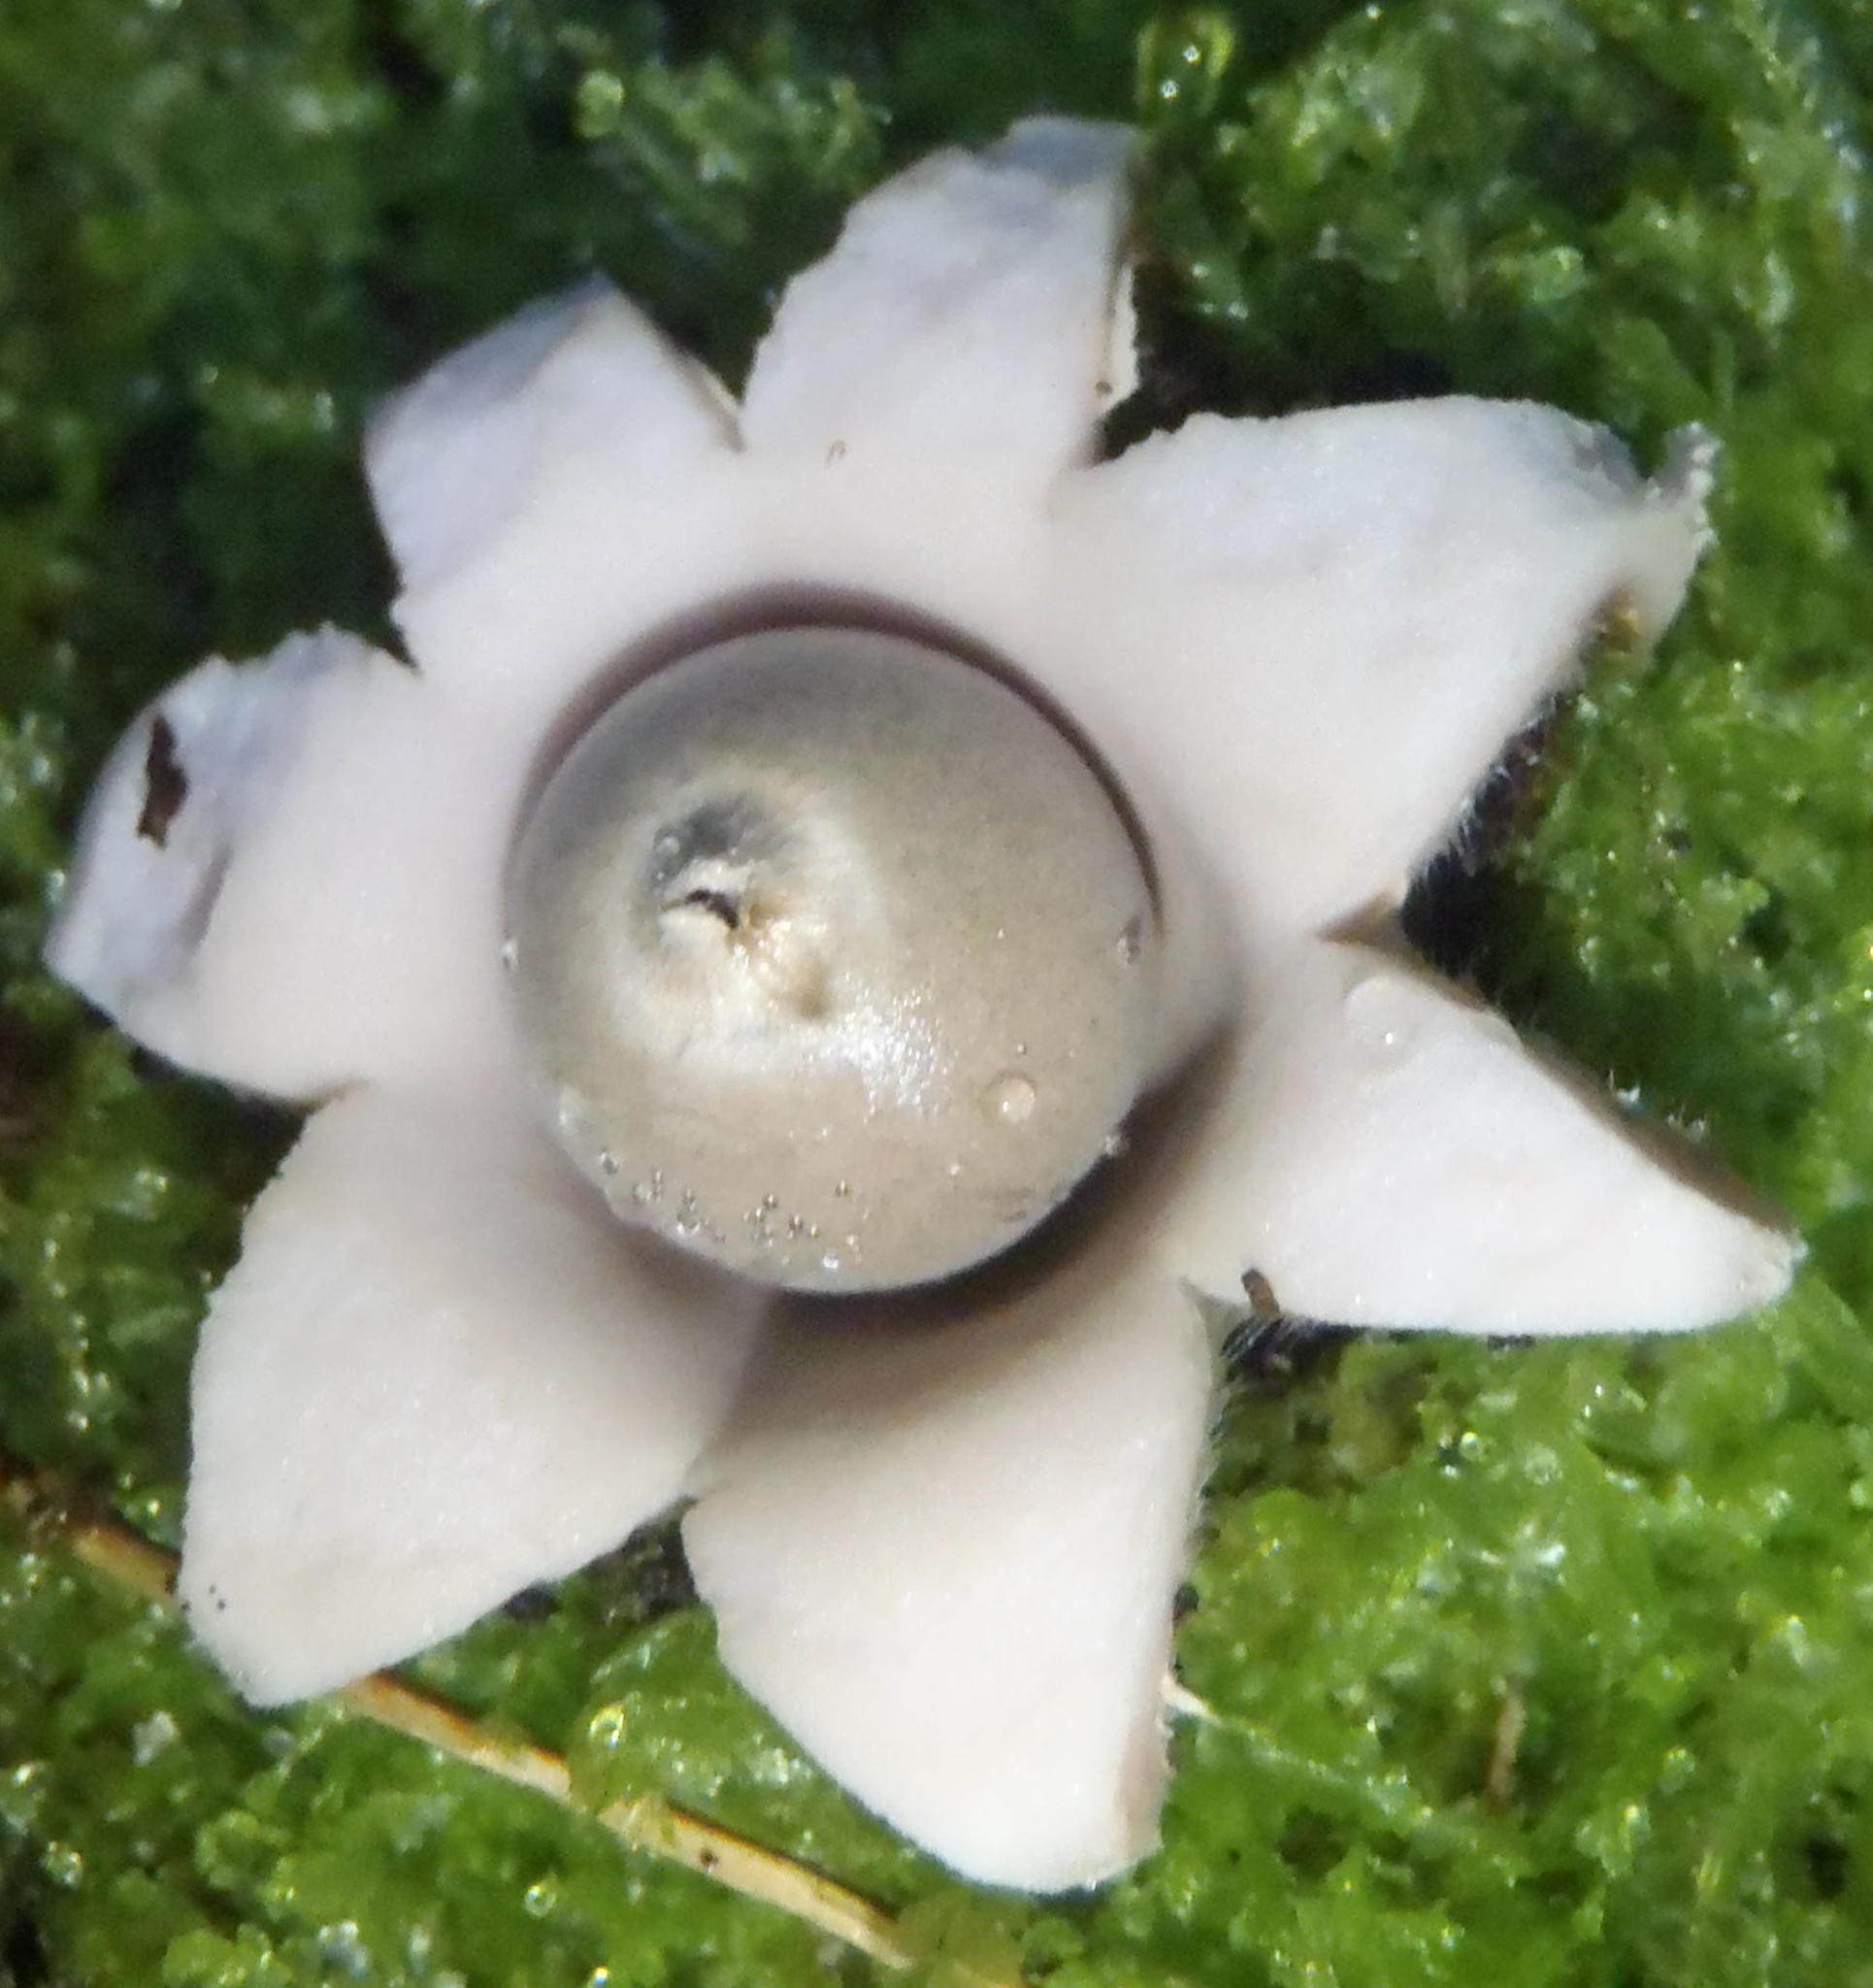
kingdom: Fungi
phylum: Basidiomycota
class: Agaricomycetes
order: Geastrales
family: Geastraceae
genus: Geastrum
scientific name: Geastrum fimbriatum
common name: Sessile earthstar
